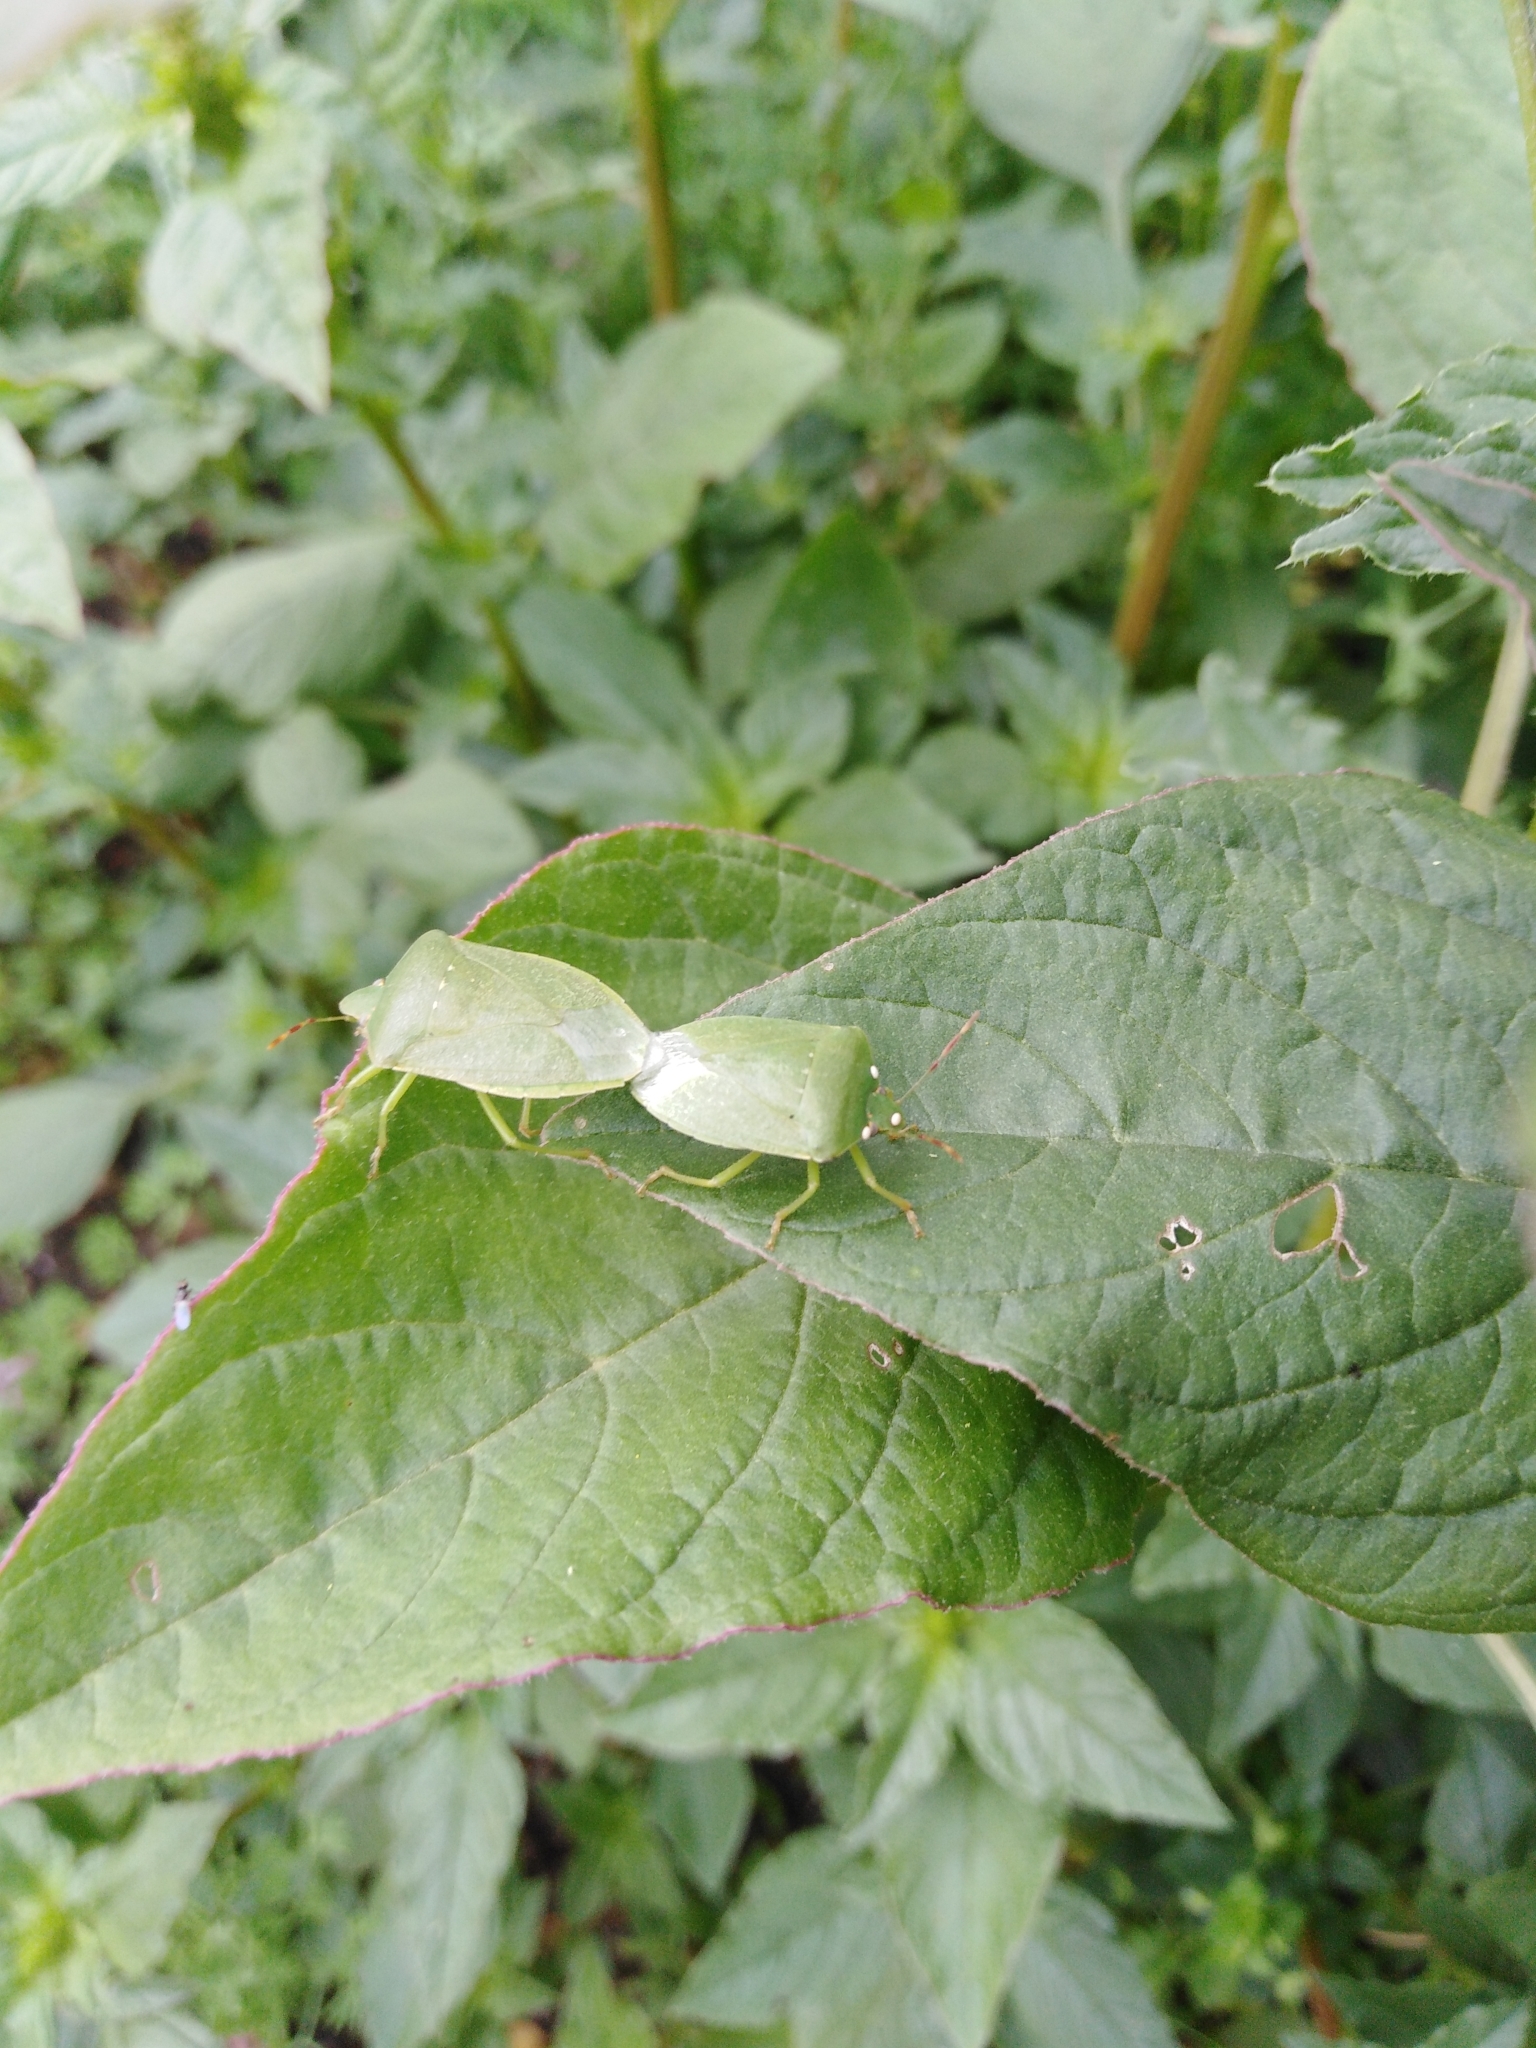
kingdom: Animalia
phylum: Arthropoda
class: Insecta
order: Hemiptera
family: Pentatomidae
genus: Nezara
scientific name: Nezara viridula
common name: Southern green stink bug
